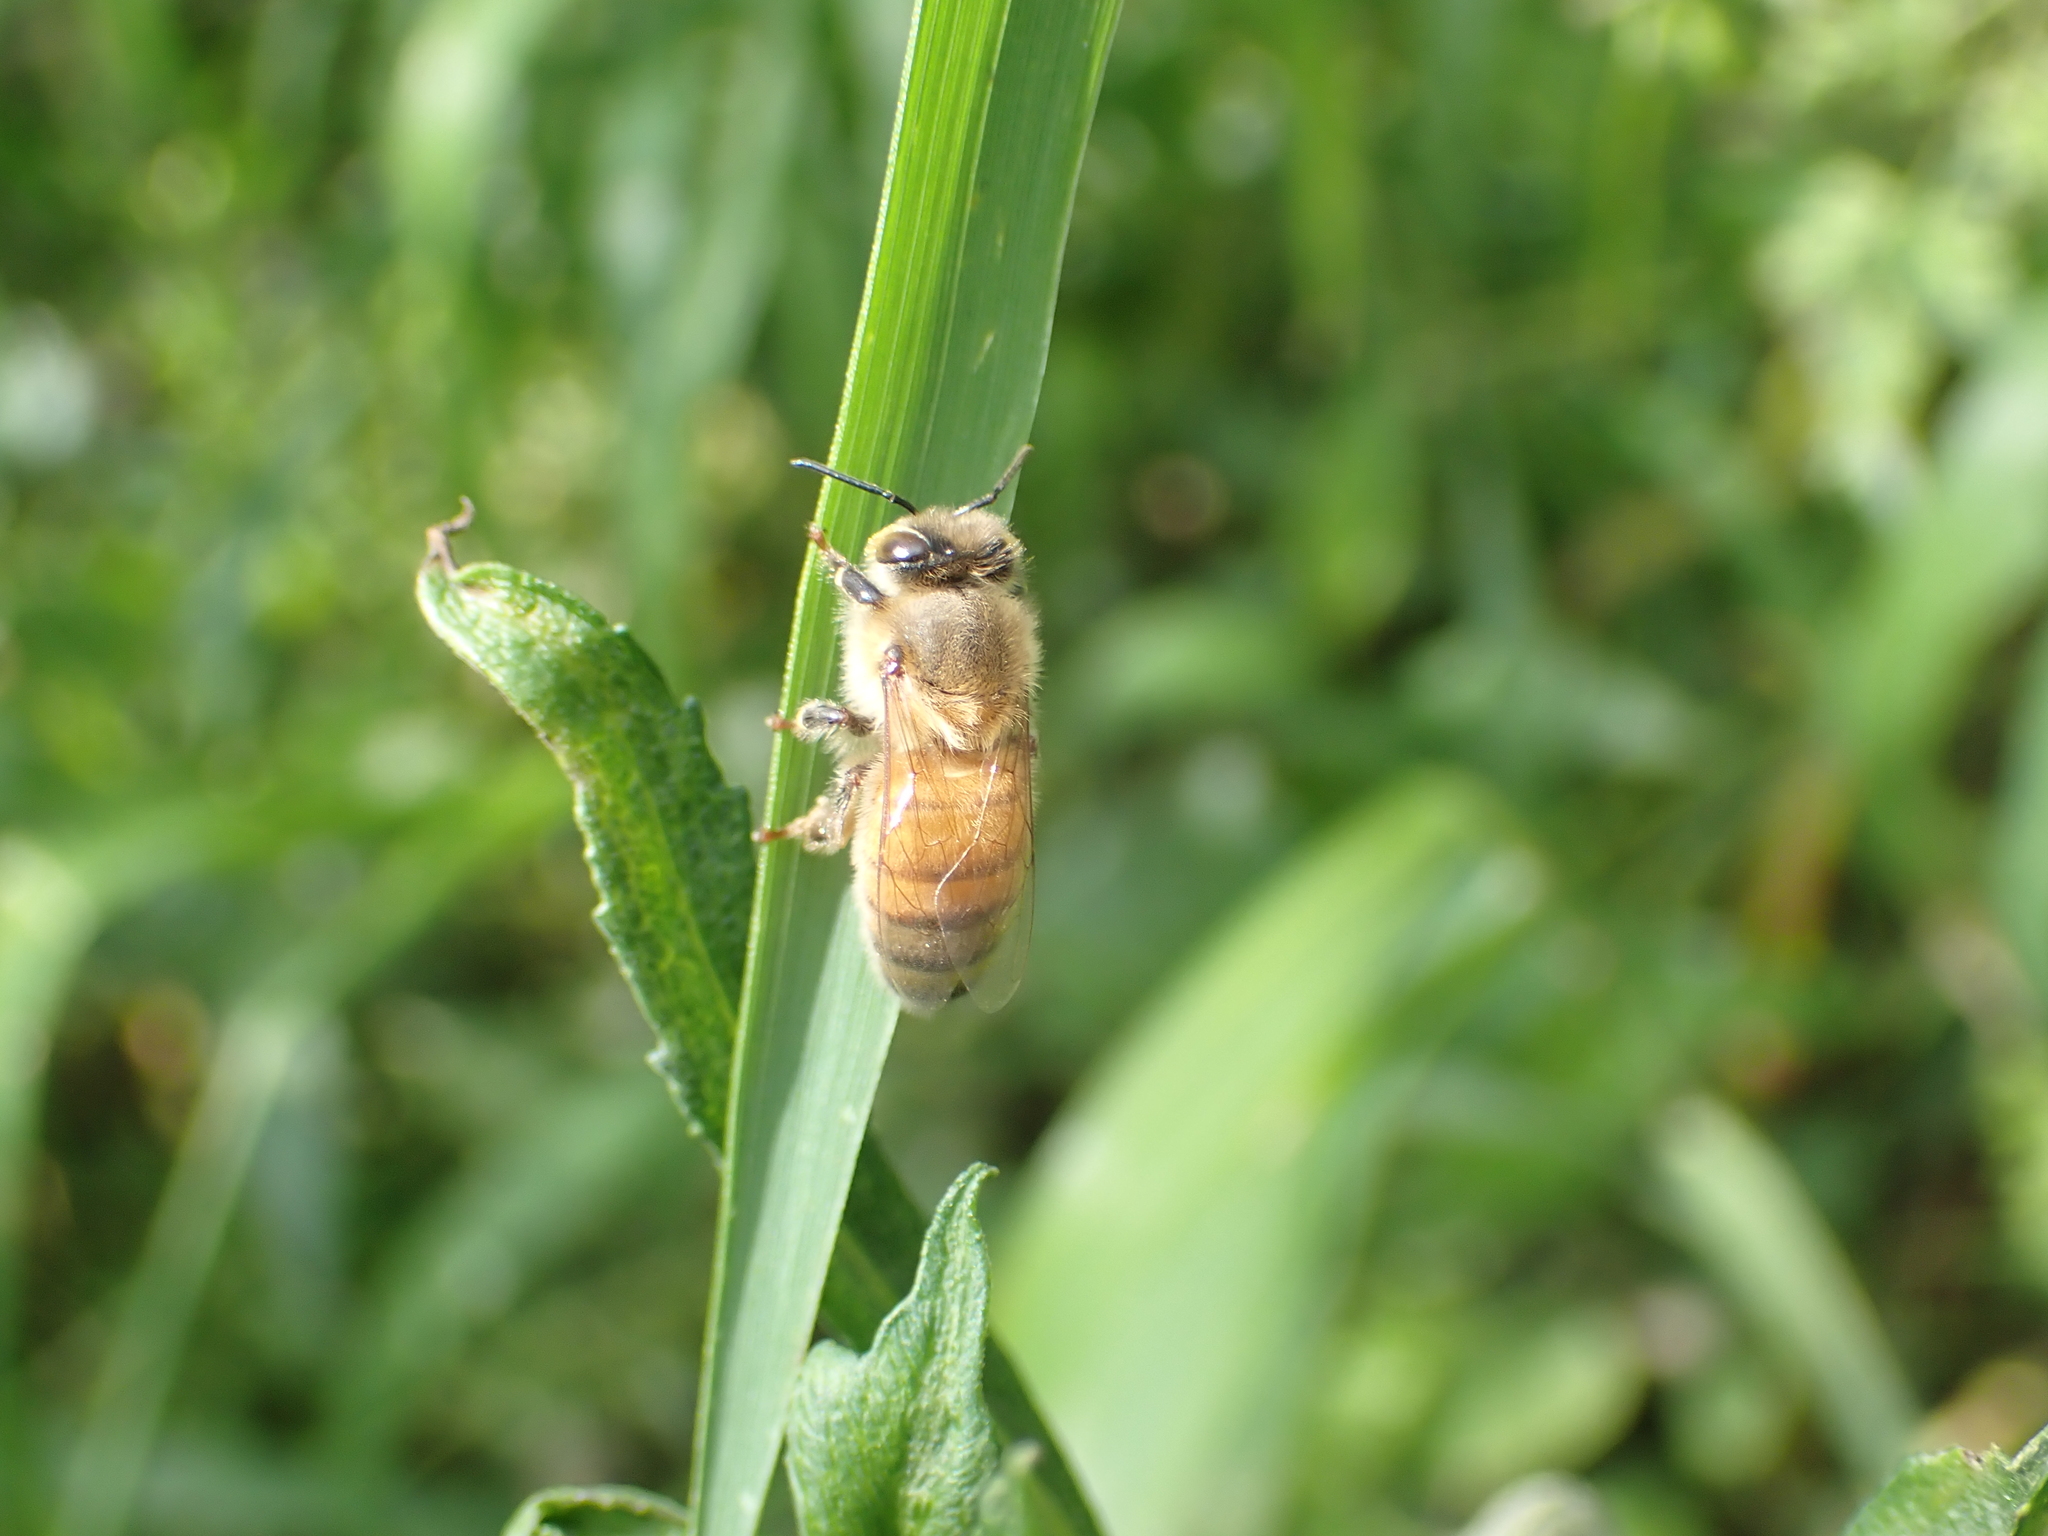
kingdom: Animalia
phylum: Arthropoda
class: Insecta
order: Hymenoptera
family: Apidae
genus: Apis
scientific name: Apis mellifera
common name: Honey bee
